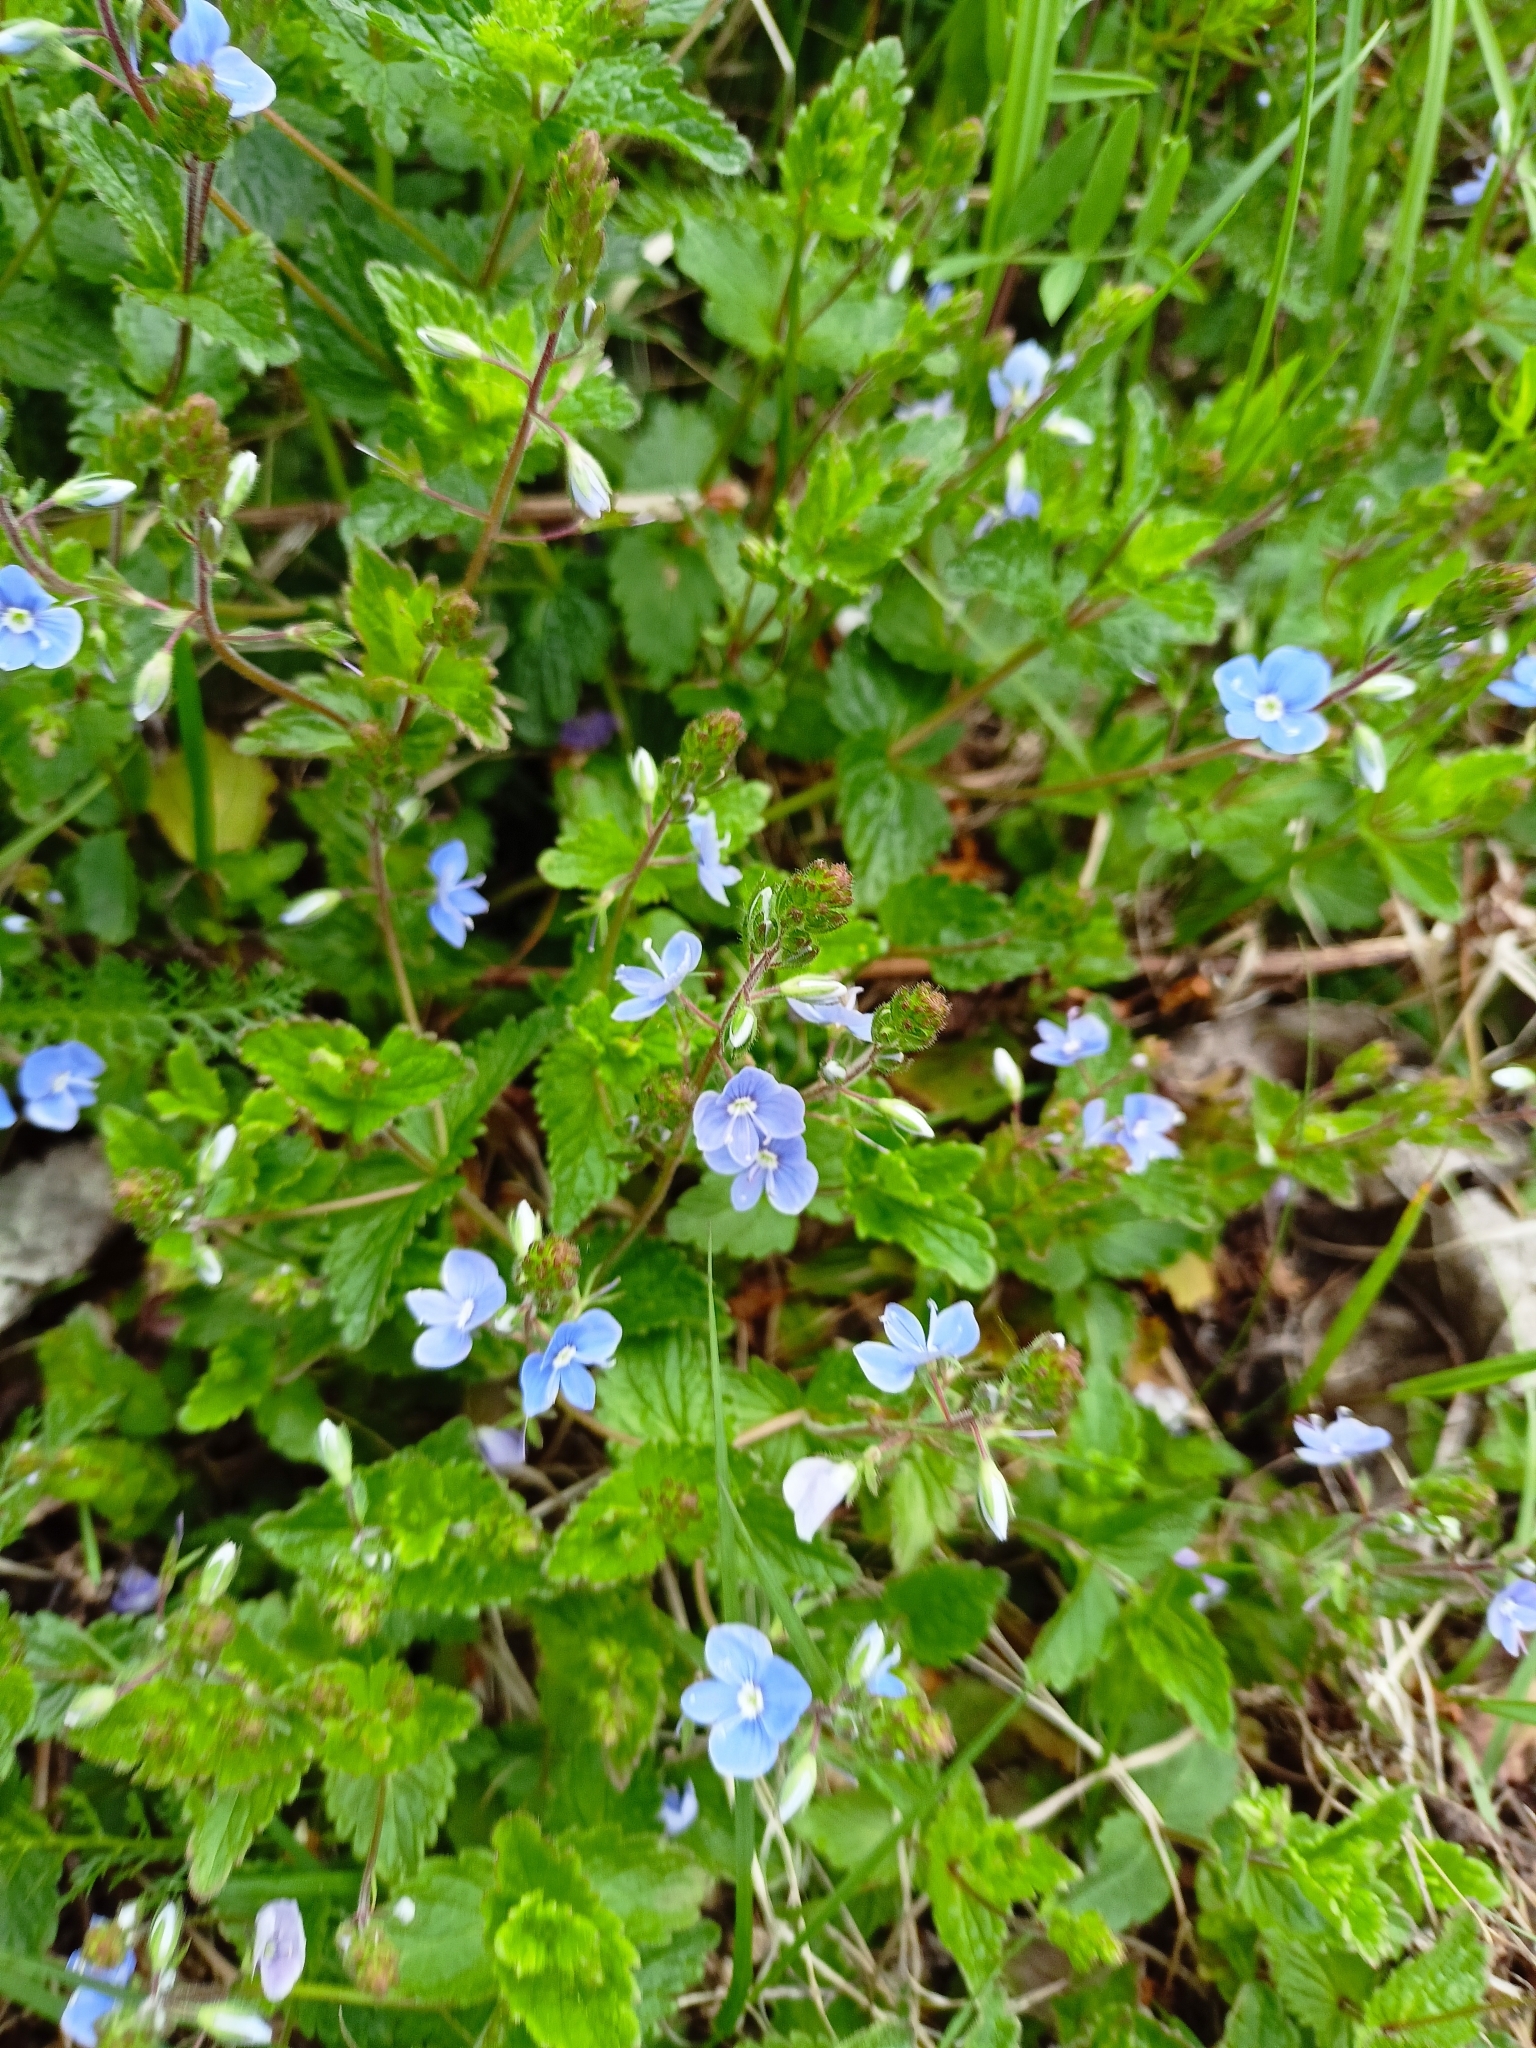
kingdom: Plantae
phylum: Tracheophyta
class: Magnoliopsida
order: Lamiales
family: Plantaginaceae
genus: Veronica
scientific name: Veronica chamaedrys
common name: Germander speedwell
